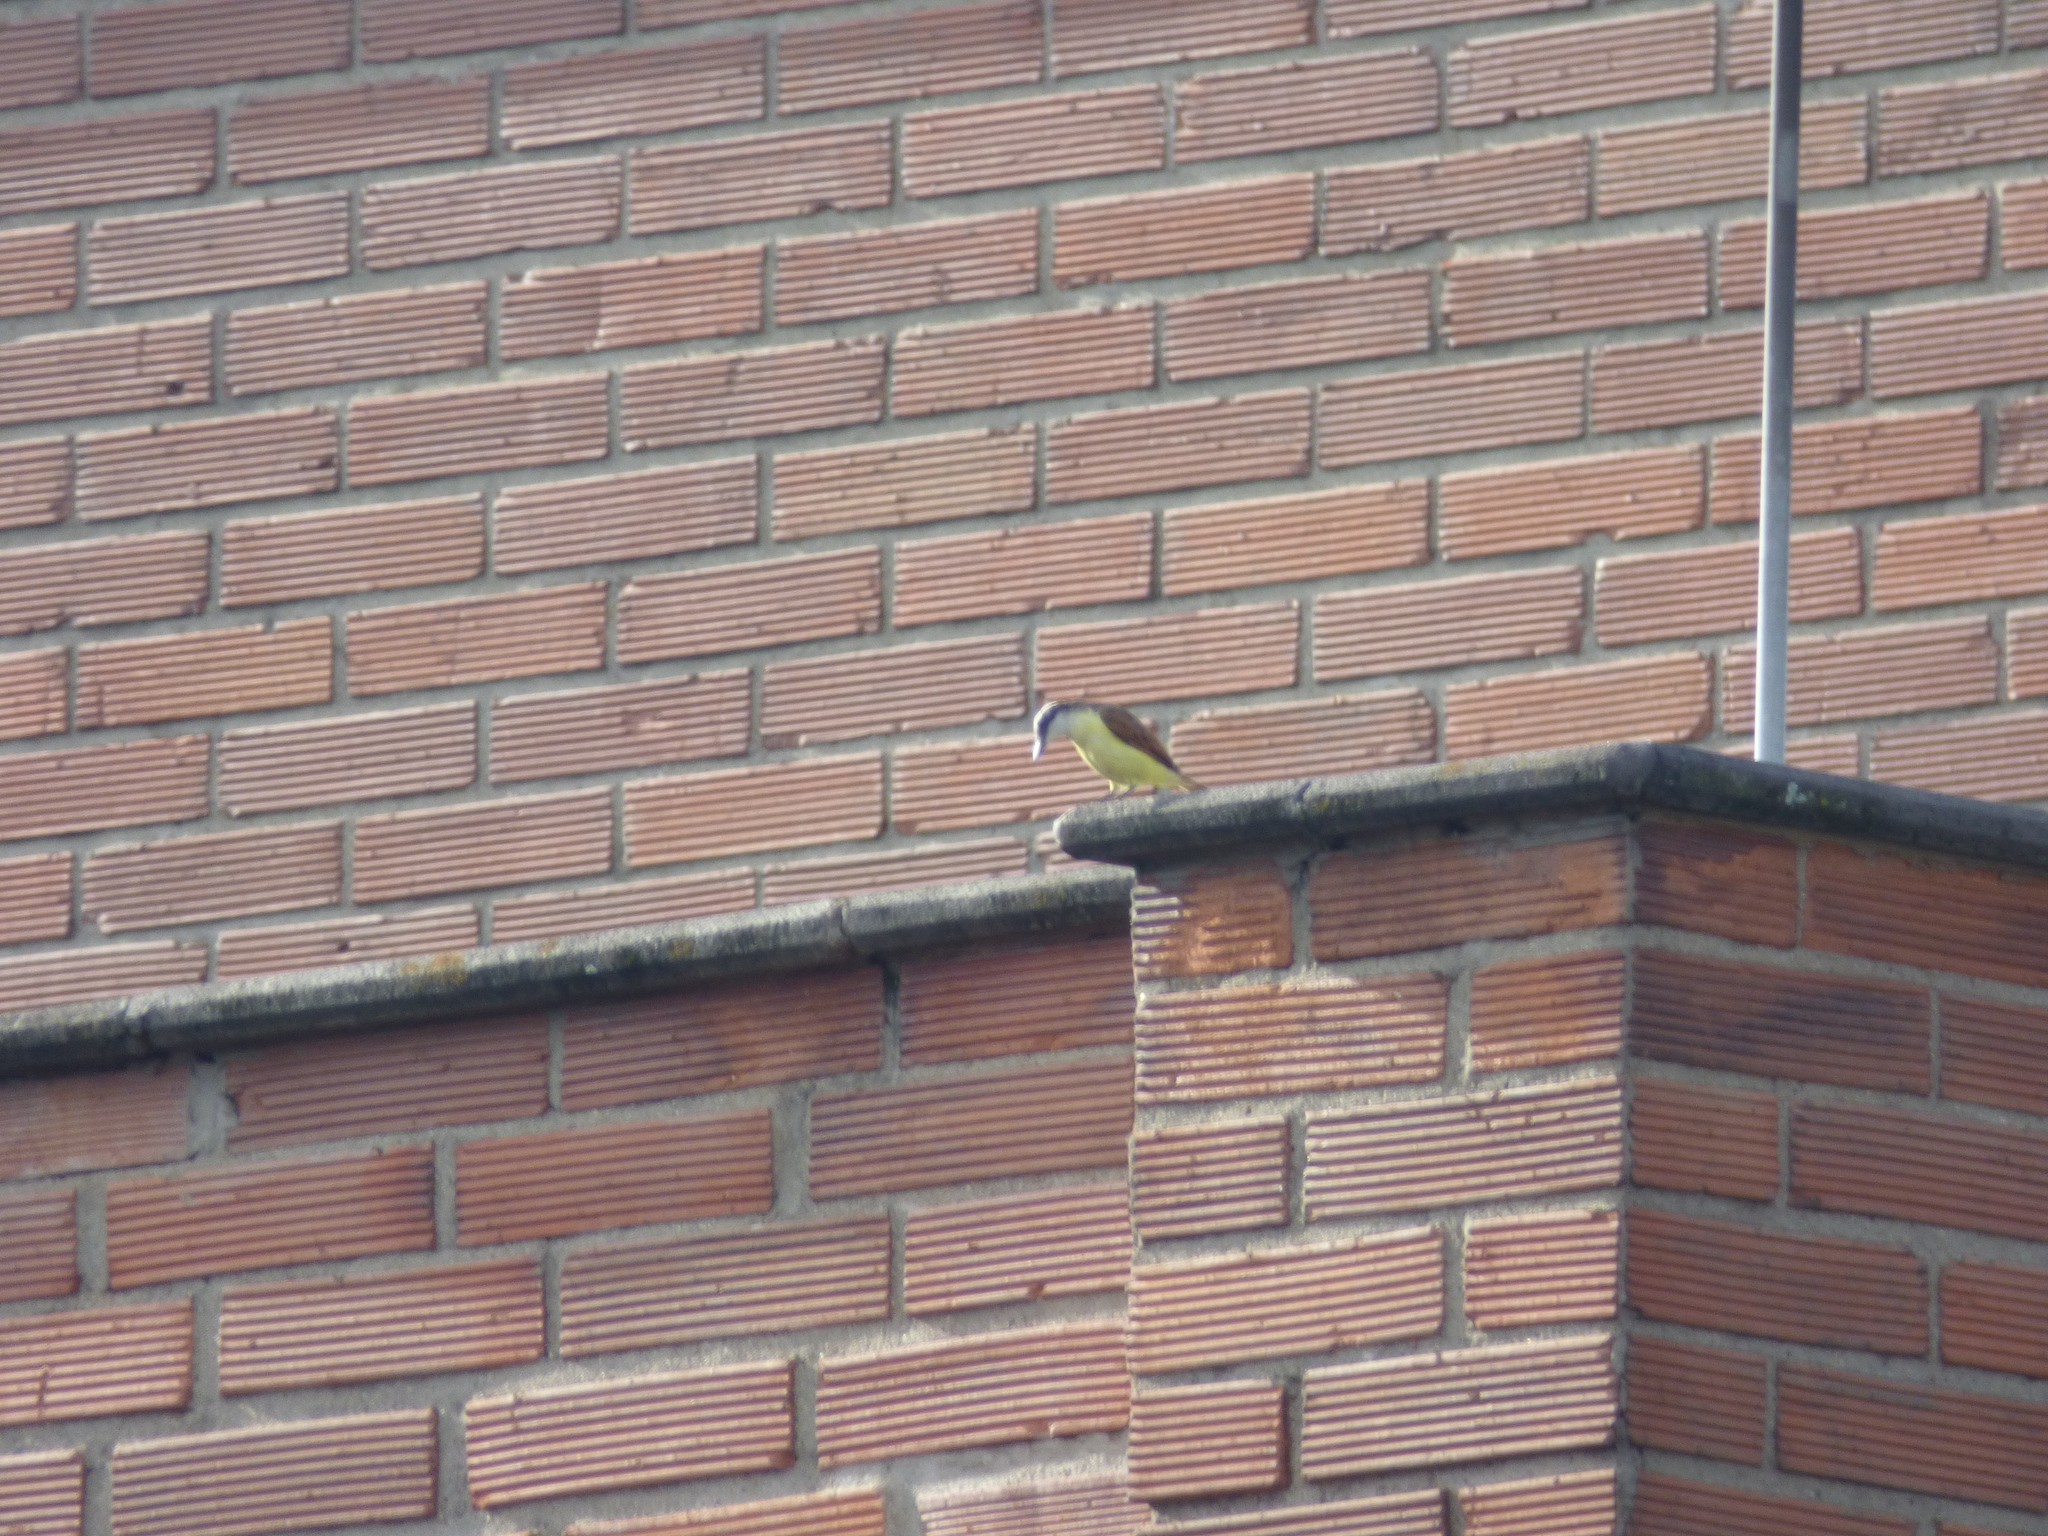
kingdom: Animalia
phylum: Chordata
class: Aves
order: Passeriformes
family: Tyrannidae
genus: Pitangus
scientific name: Pitangus sulphuratus
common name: Great kiskadee
